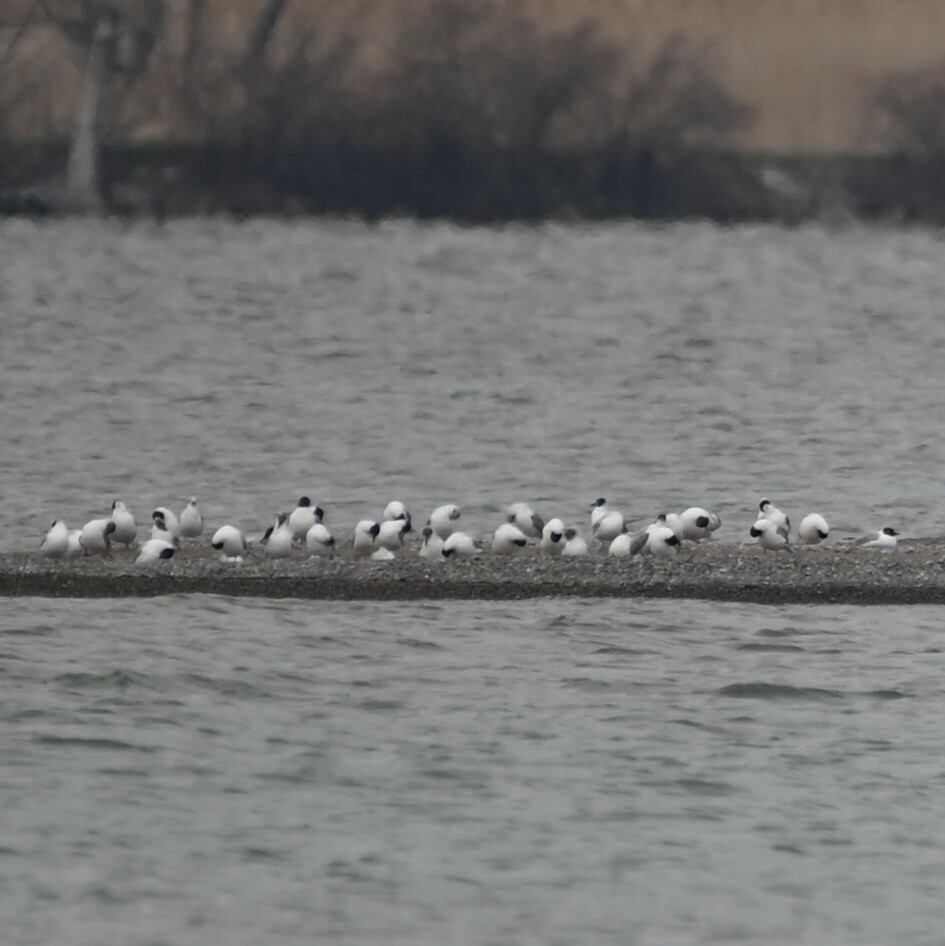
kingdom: Animalia
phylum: Chordata
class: Aves
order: Charadriiformes
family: Laridae
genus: Chroicocephalus
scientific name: Chroicocephalus philadelphia
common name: Bonaparte's gull
